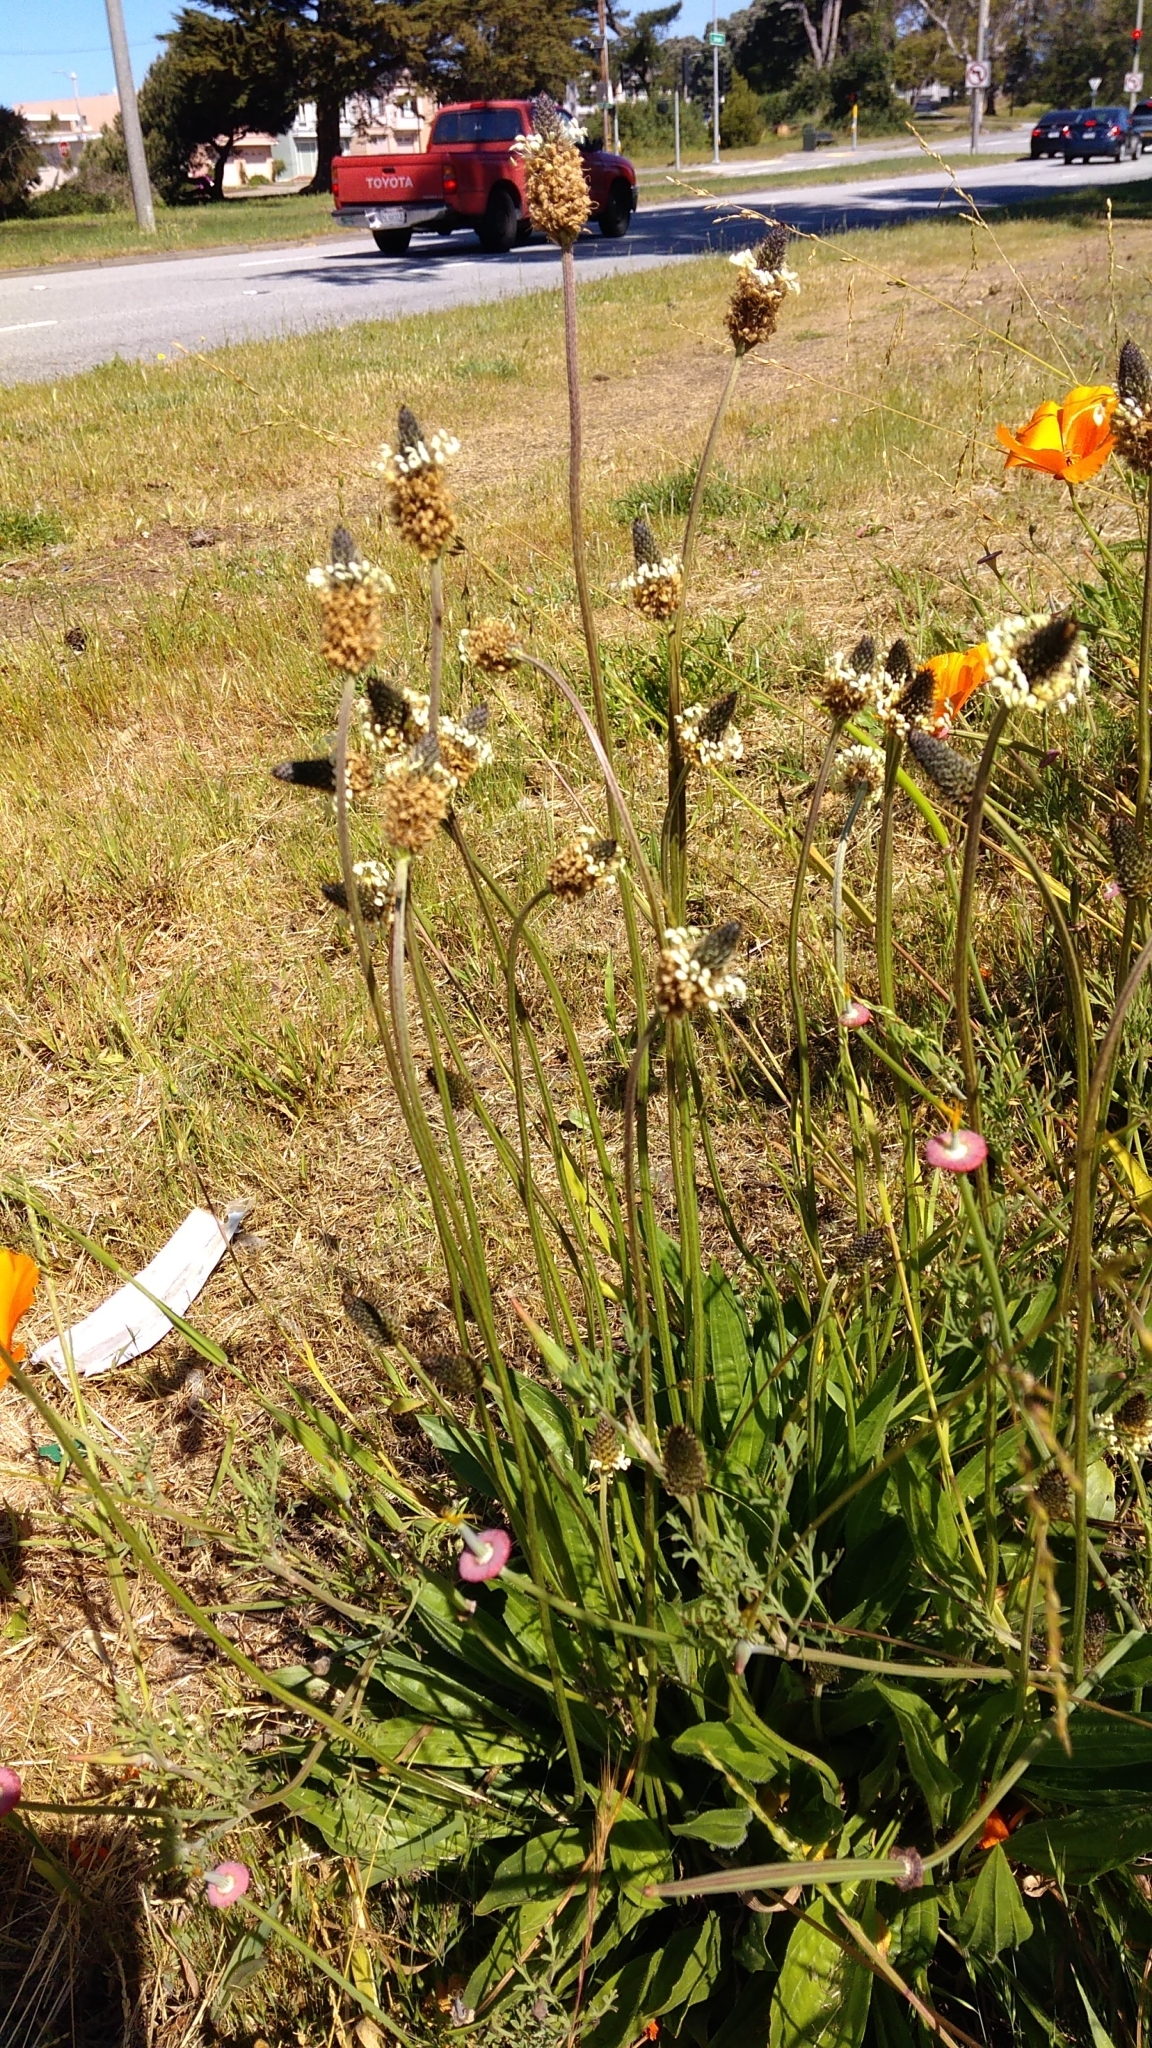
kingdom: Plantae
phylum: Tracheophyta
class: Magnoliopsida
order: Lamiales
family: Plantaginaceae
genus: Plantago
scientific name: Plantago lanceolata
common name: Ribwort plantain
